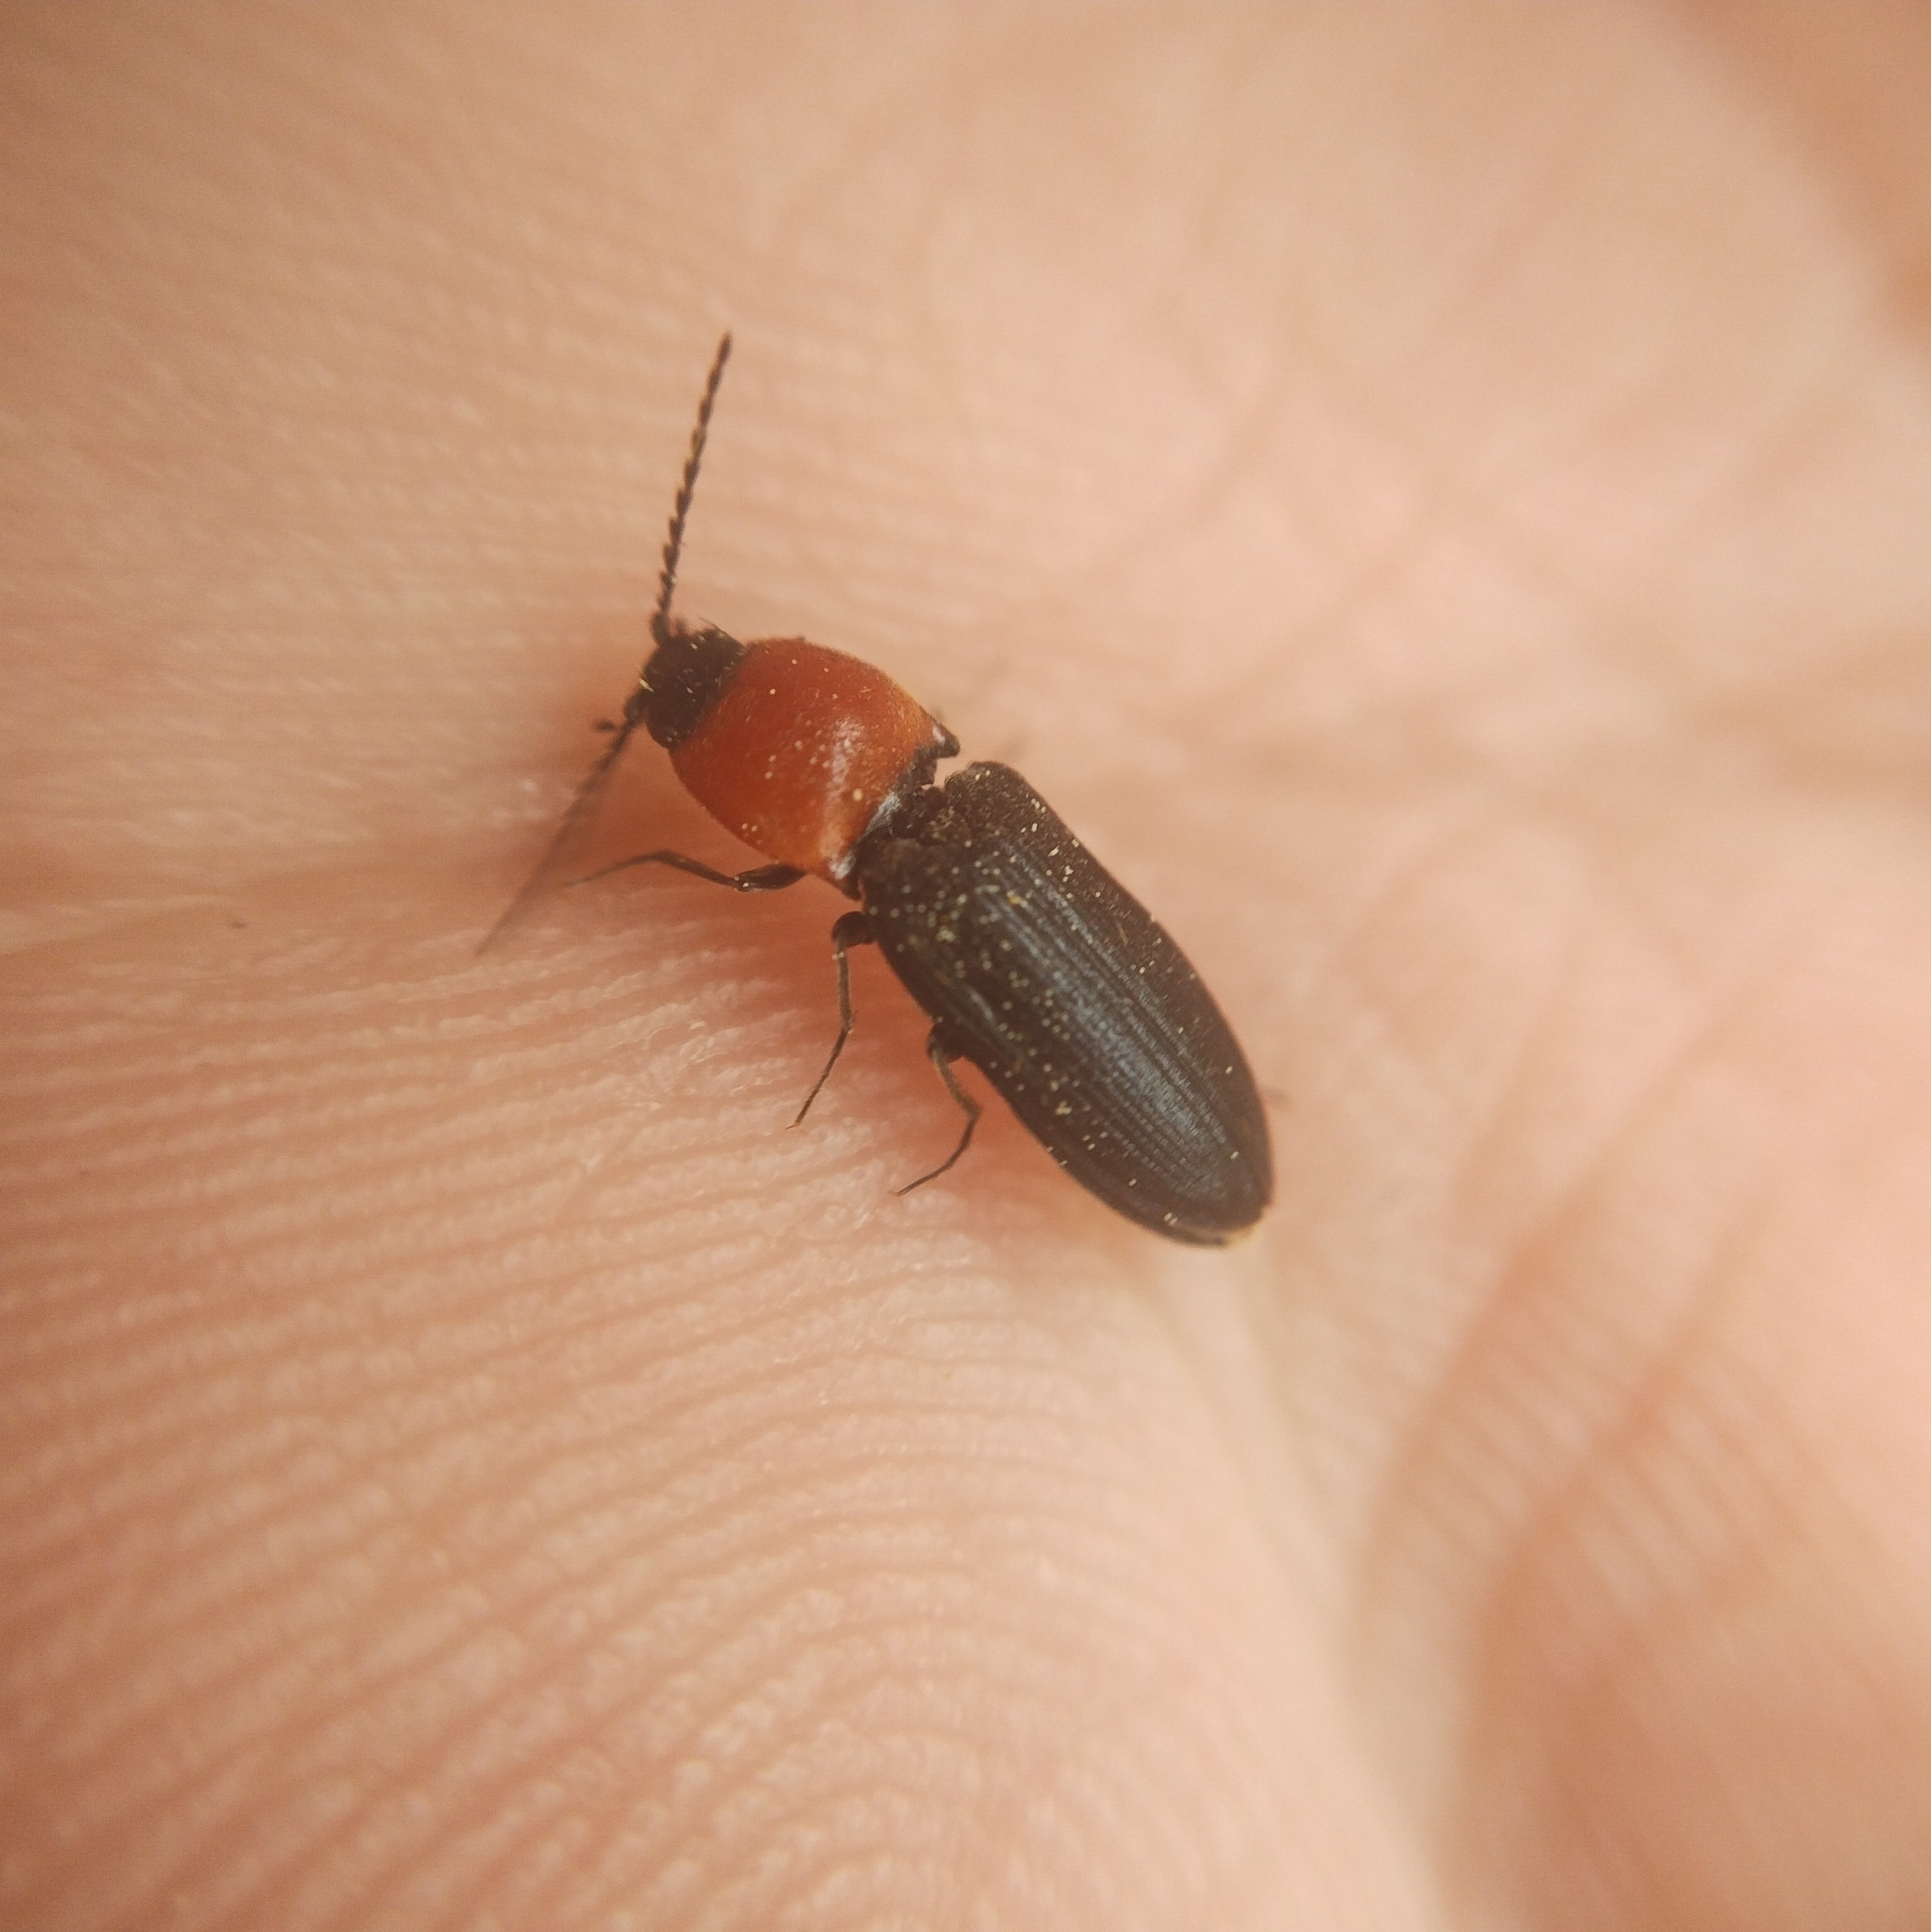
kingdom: Animalia
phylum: Arthropoda
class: Insecta
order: Coleoptera
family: Elateridae
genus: Cardiophorus
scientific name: Cardiophorus gramineus
